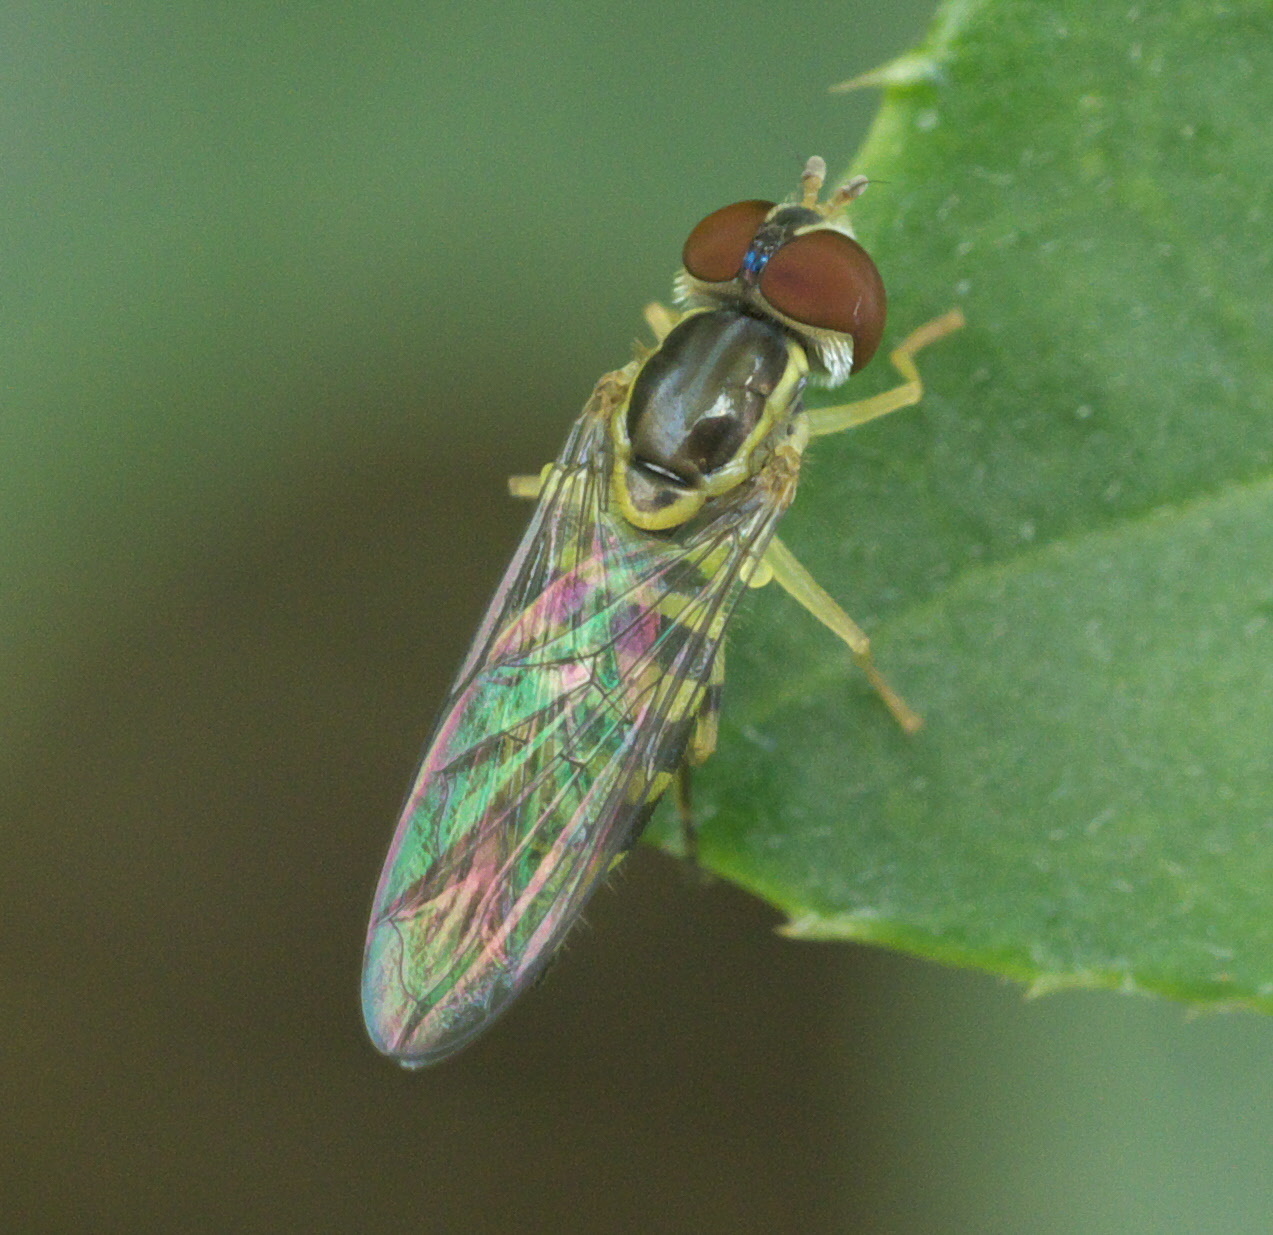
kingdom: Animalia
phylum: Arthropoda
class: Insecta
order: Diptera
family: Syrphidae
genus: Toxomerus
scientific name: Toxomerus geminatus
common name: Eastern calligrapher
